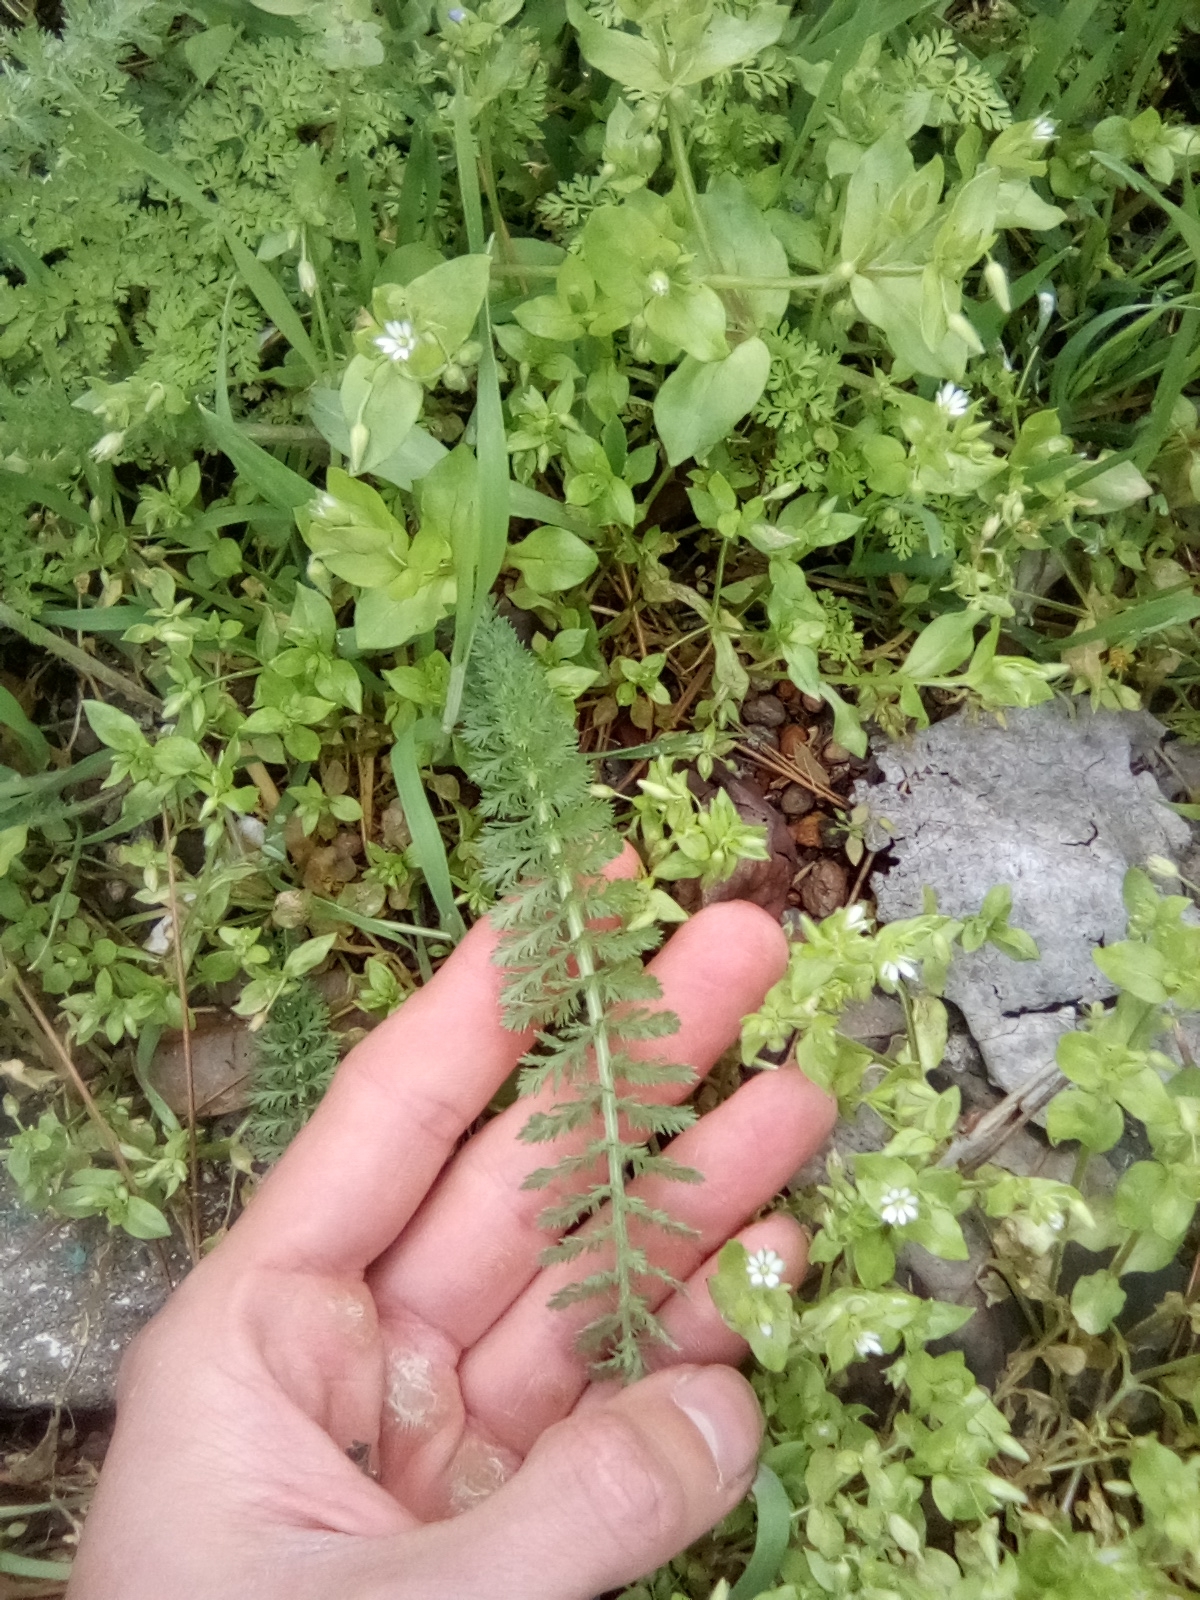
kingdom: Plantae
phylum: Tracheophyta
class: Magnoliopsida
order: Asterales
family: Asteraceae
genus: Achillea
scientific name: Achillea millefolium
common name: Yarrow
